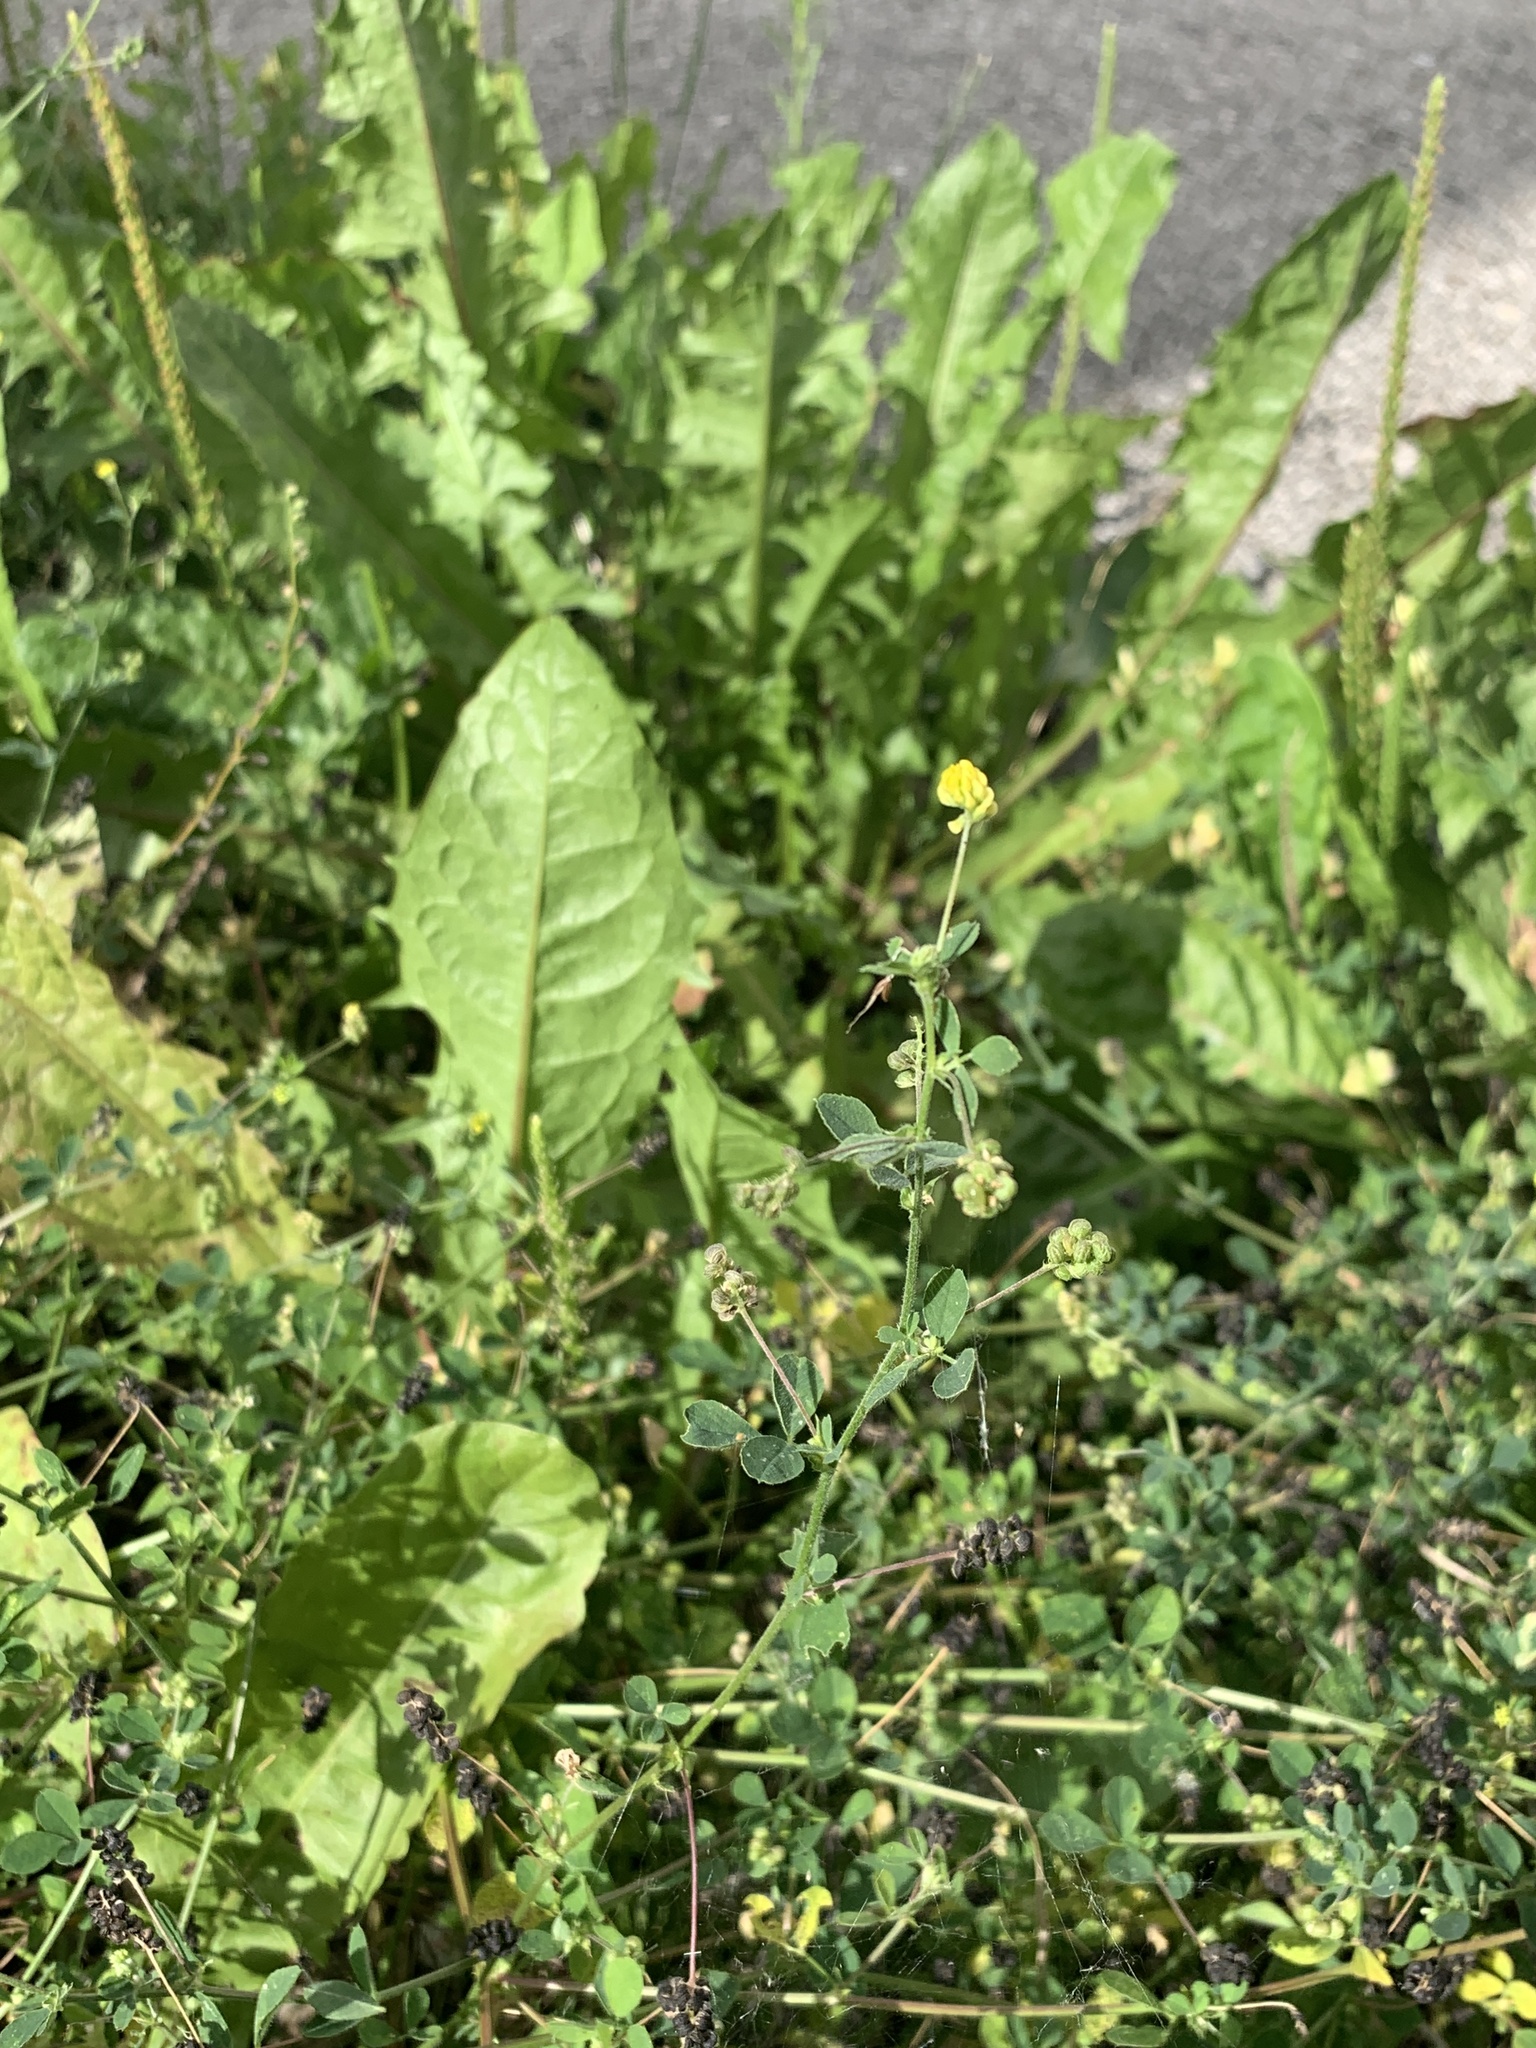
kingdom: Plantae
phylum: Tracheophyta
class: Magnoliopsida
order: Fabales
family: Fabaceae
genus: Medicago
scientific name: Medicago lupulina
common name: Black medick
